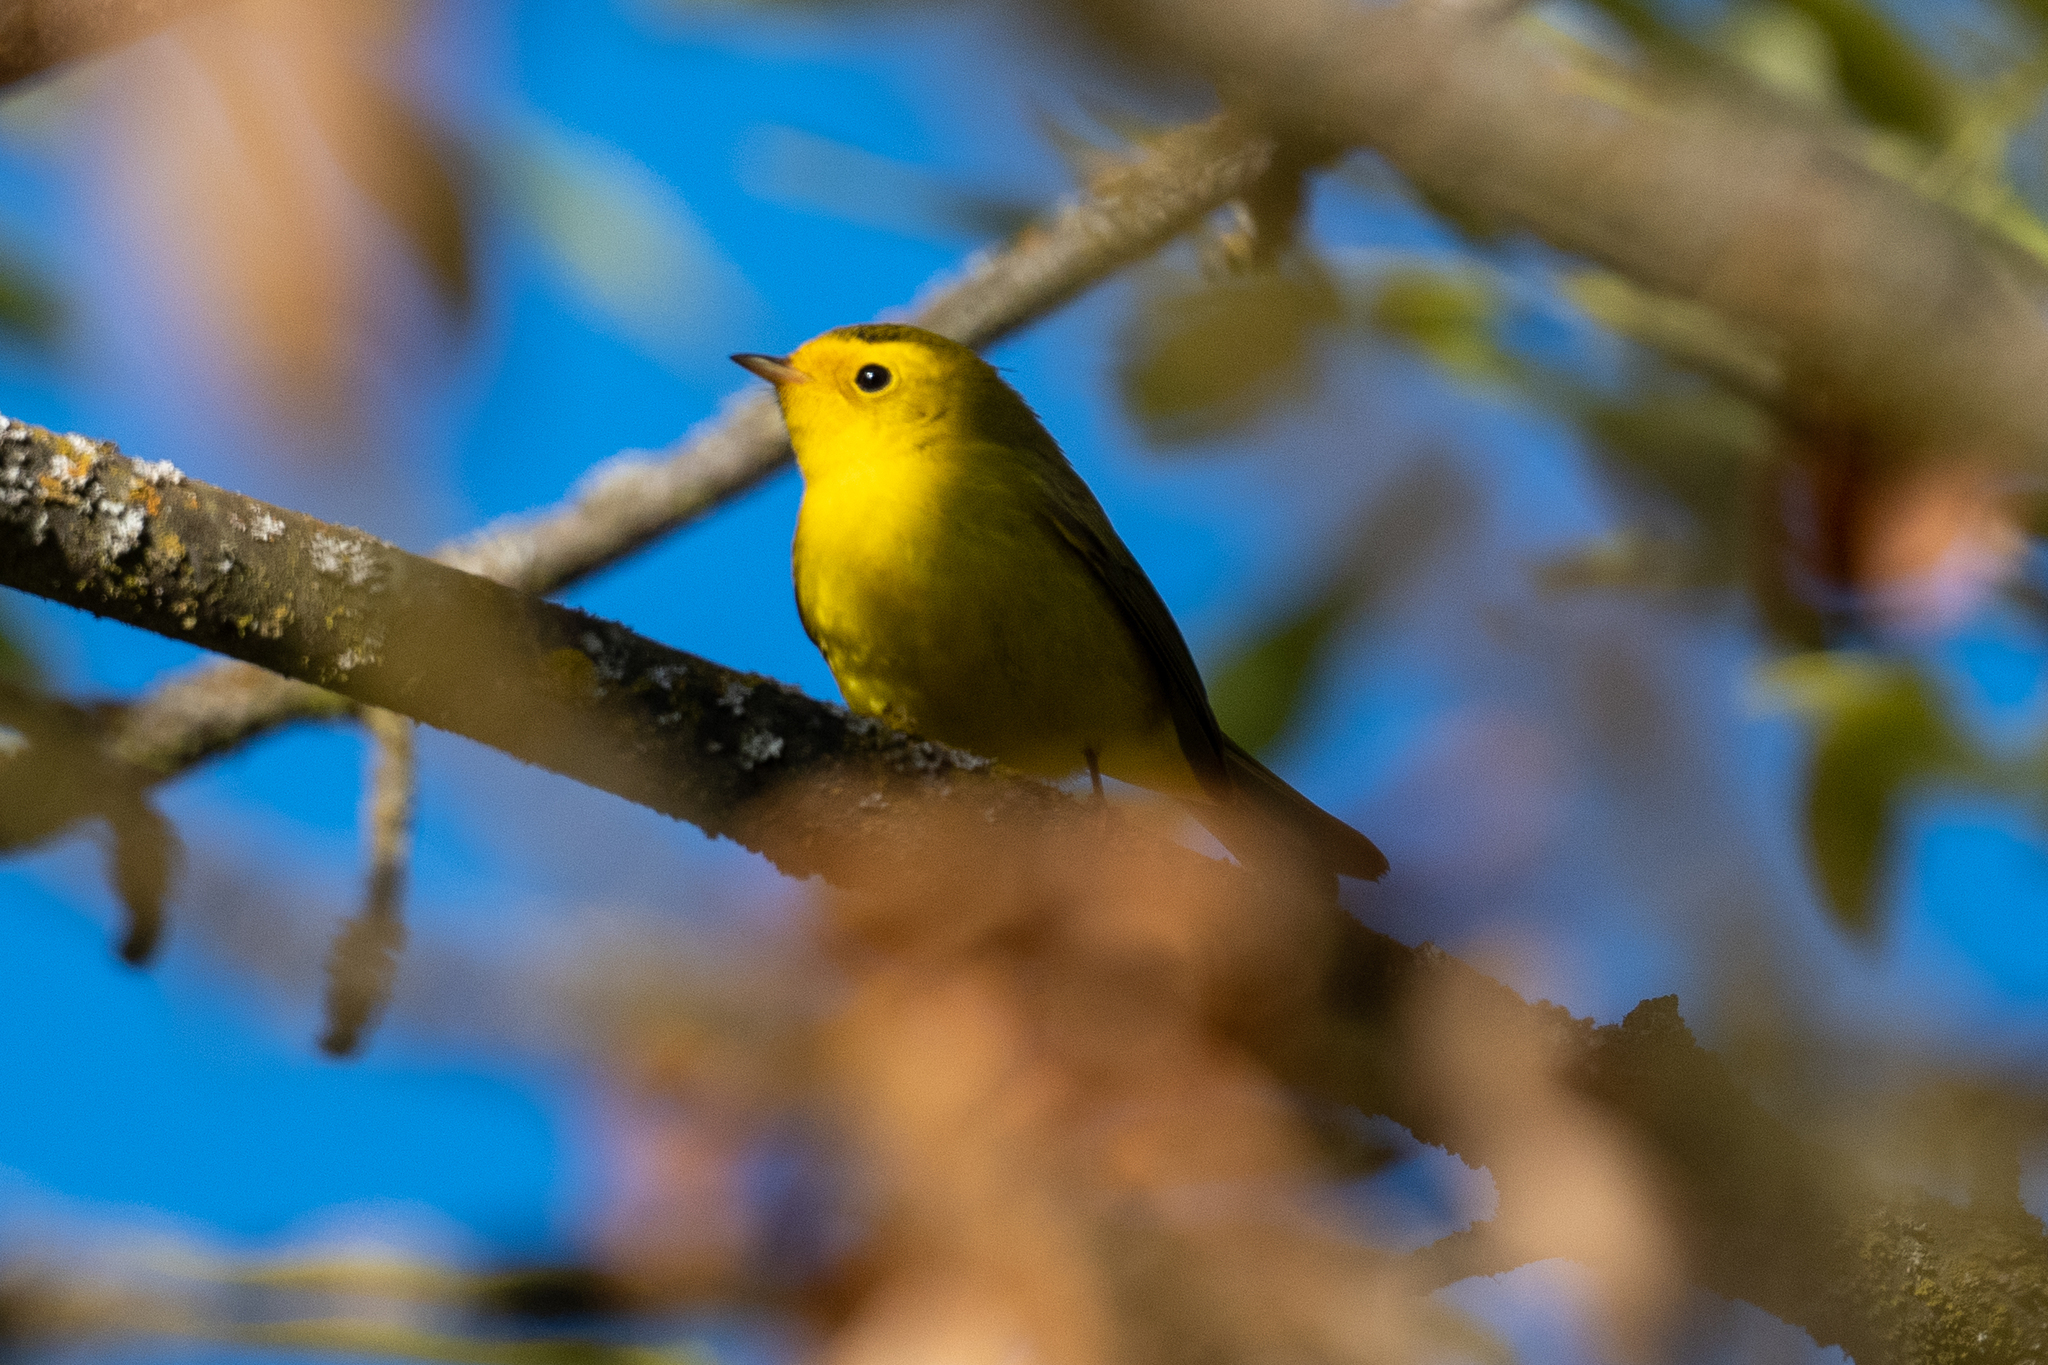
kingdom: Animalia
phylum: Chordata
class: Aves
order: Passeriformes
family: Parulidae
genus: Cardellina
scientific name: Cardellina pusilla
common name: Wilson's warbler
